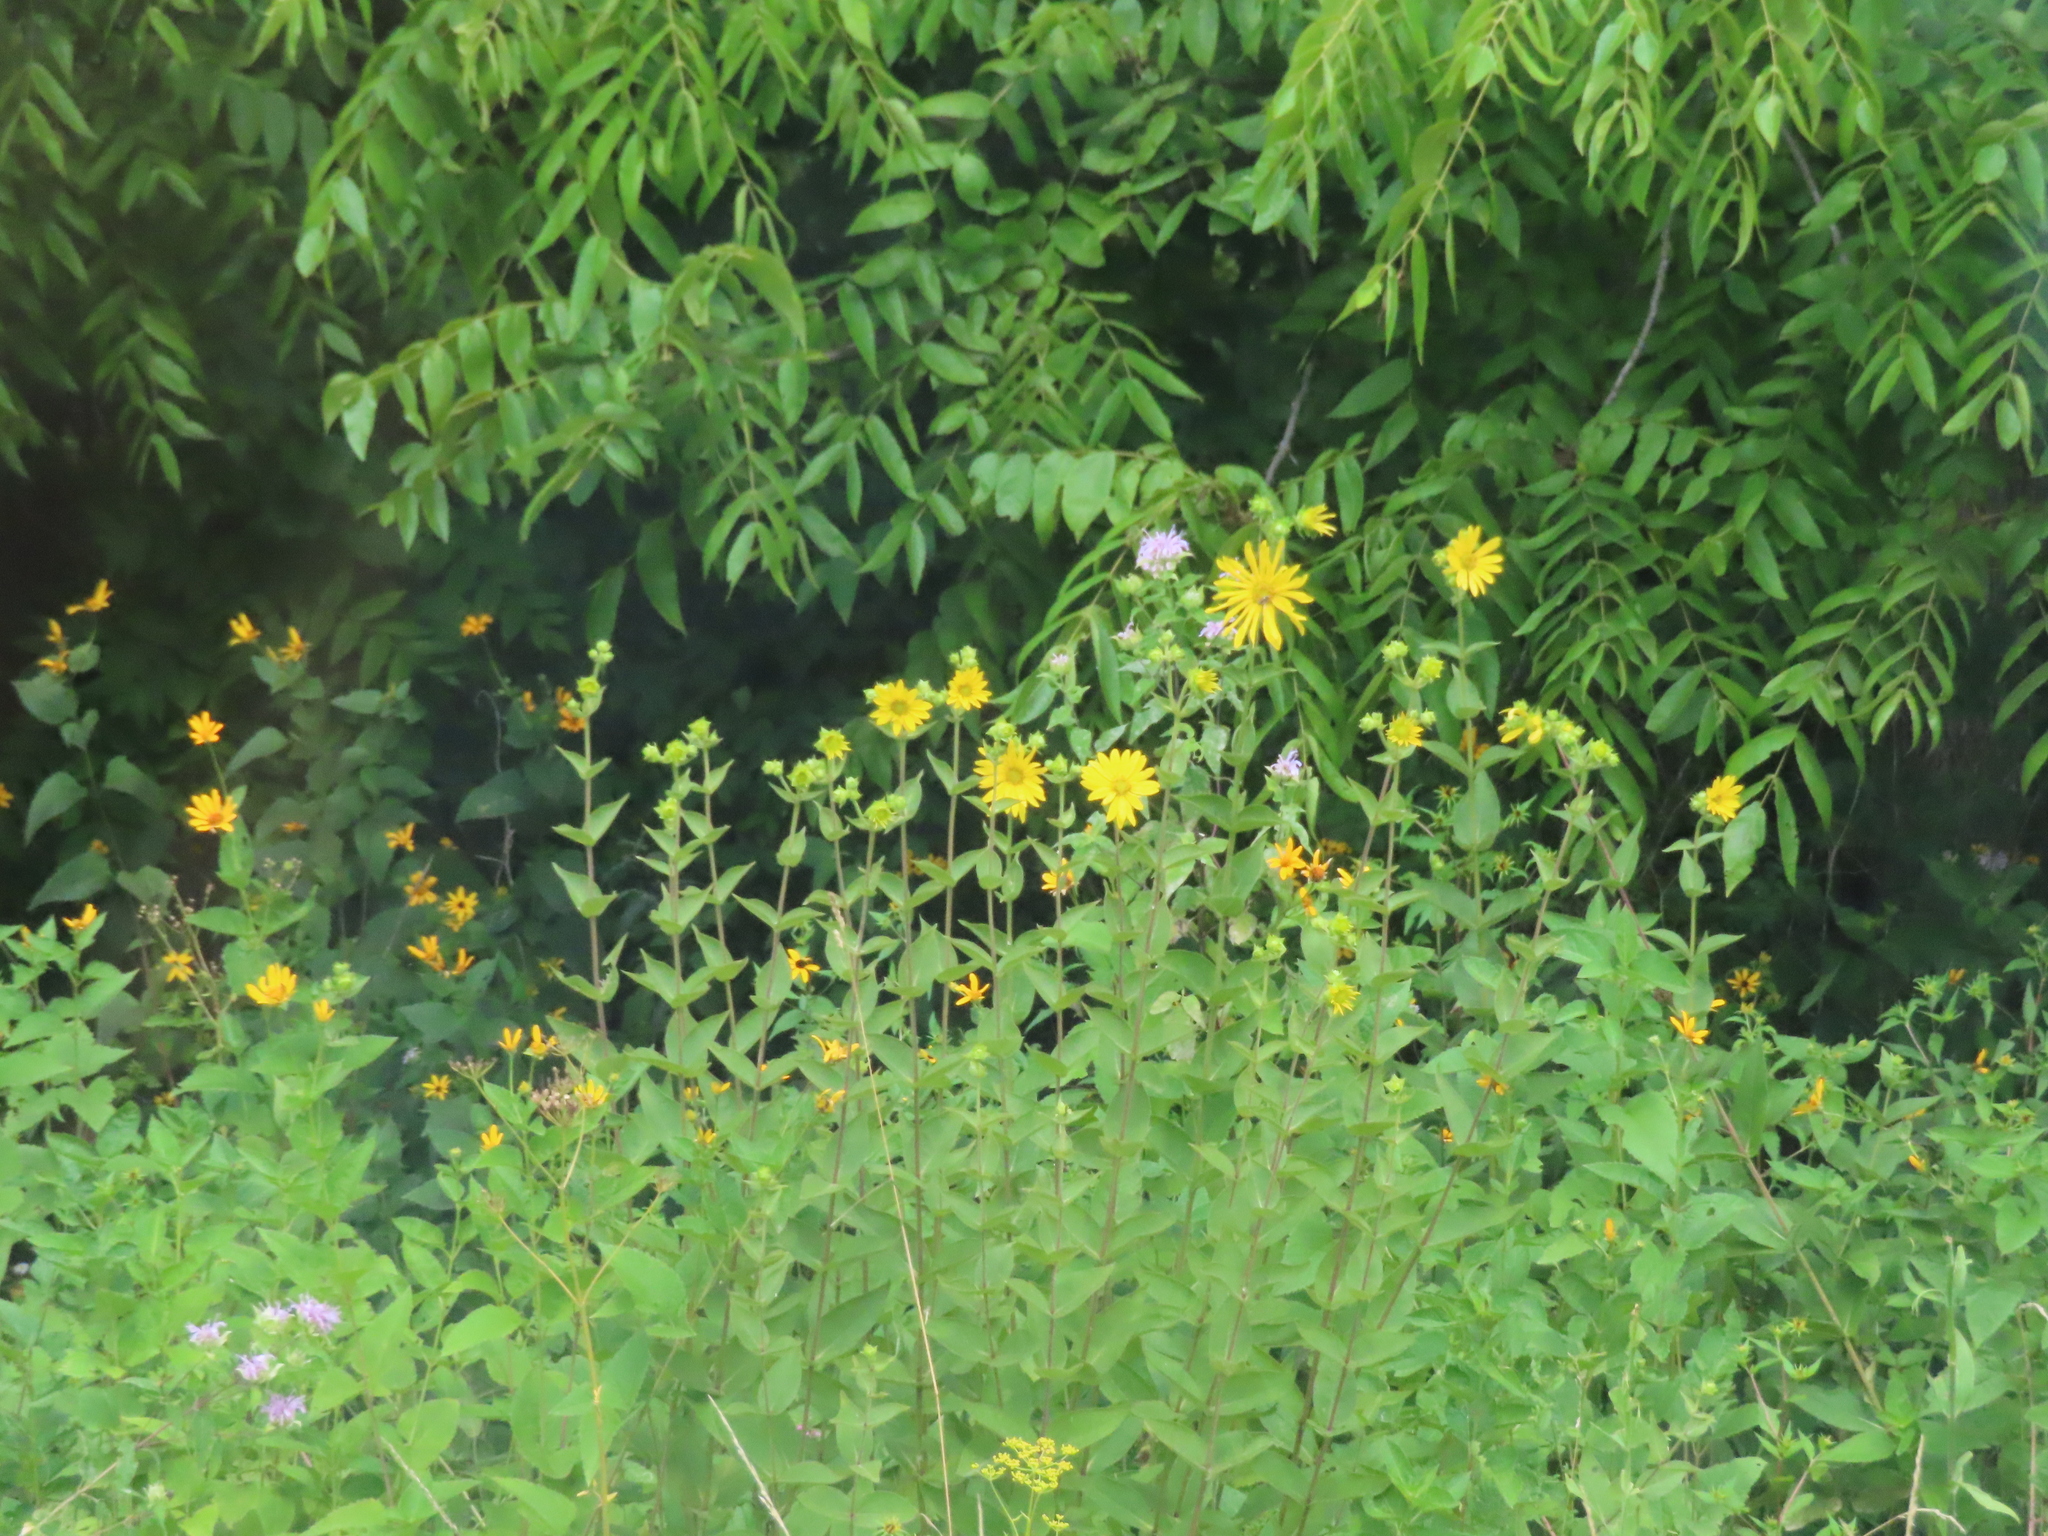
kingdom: Plantae
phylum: Tracheophyta
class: Magnoliopsida
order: Fagales
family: Juglandaceae
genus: Juglans
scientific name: Juglans nigra
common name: Black walnut
